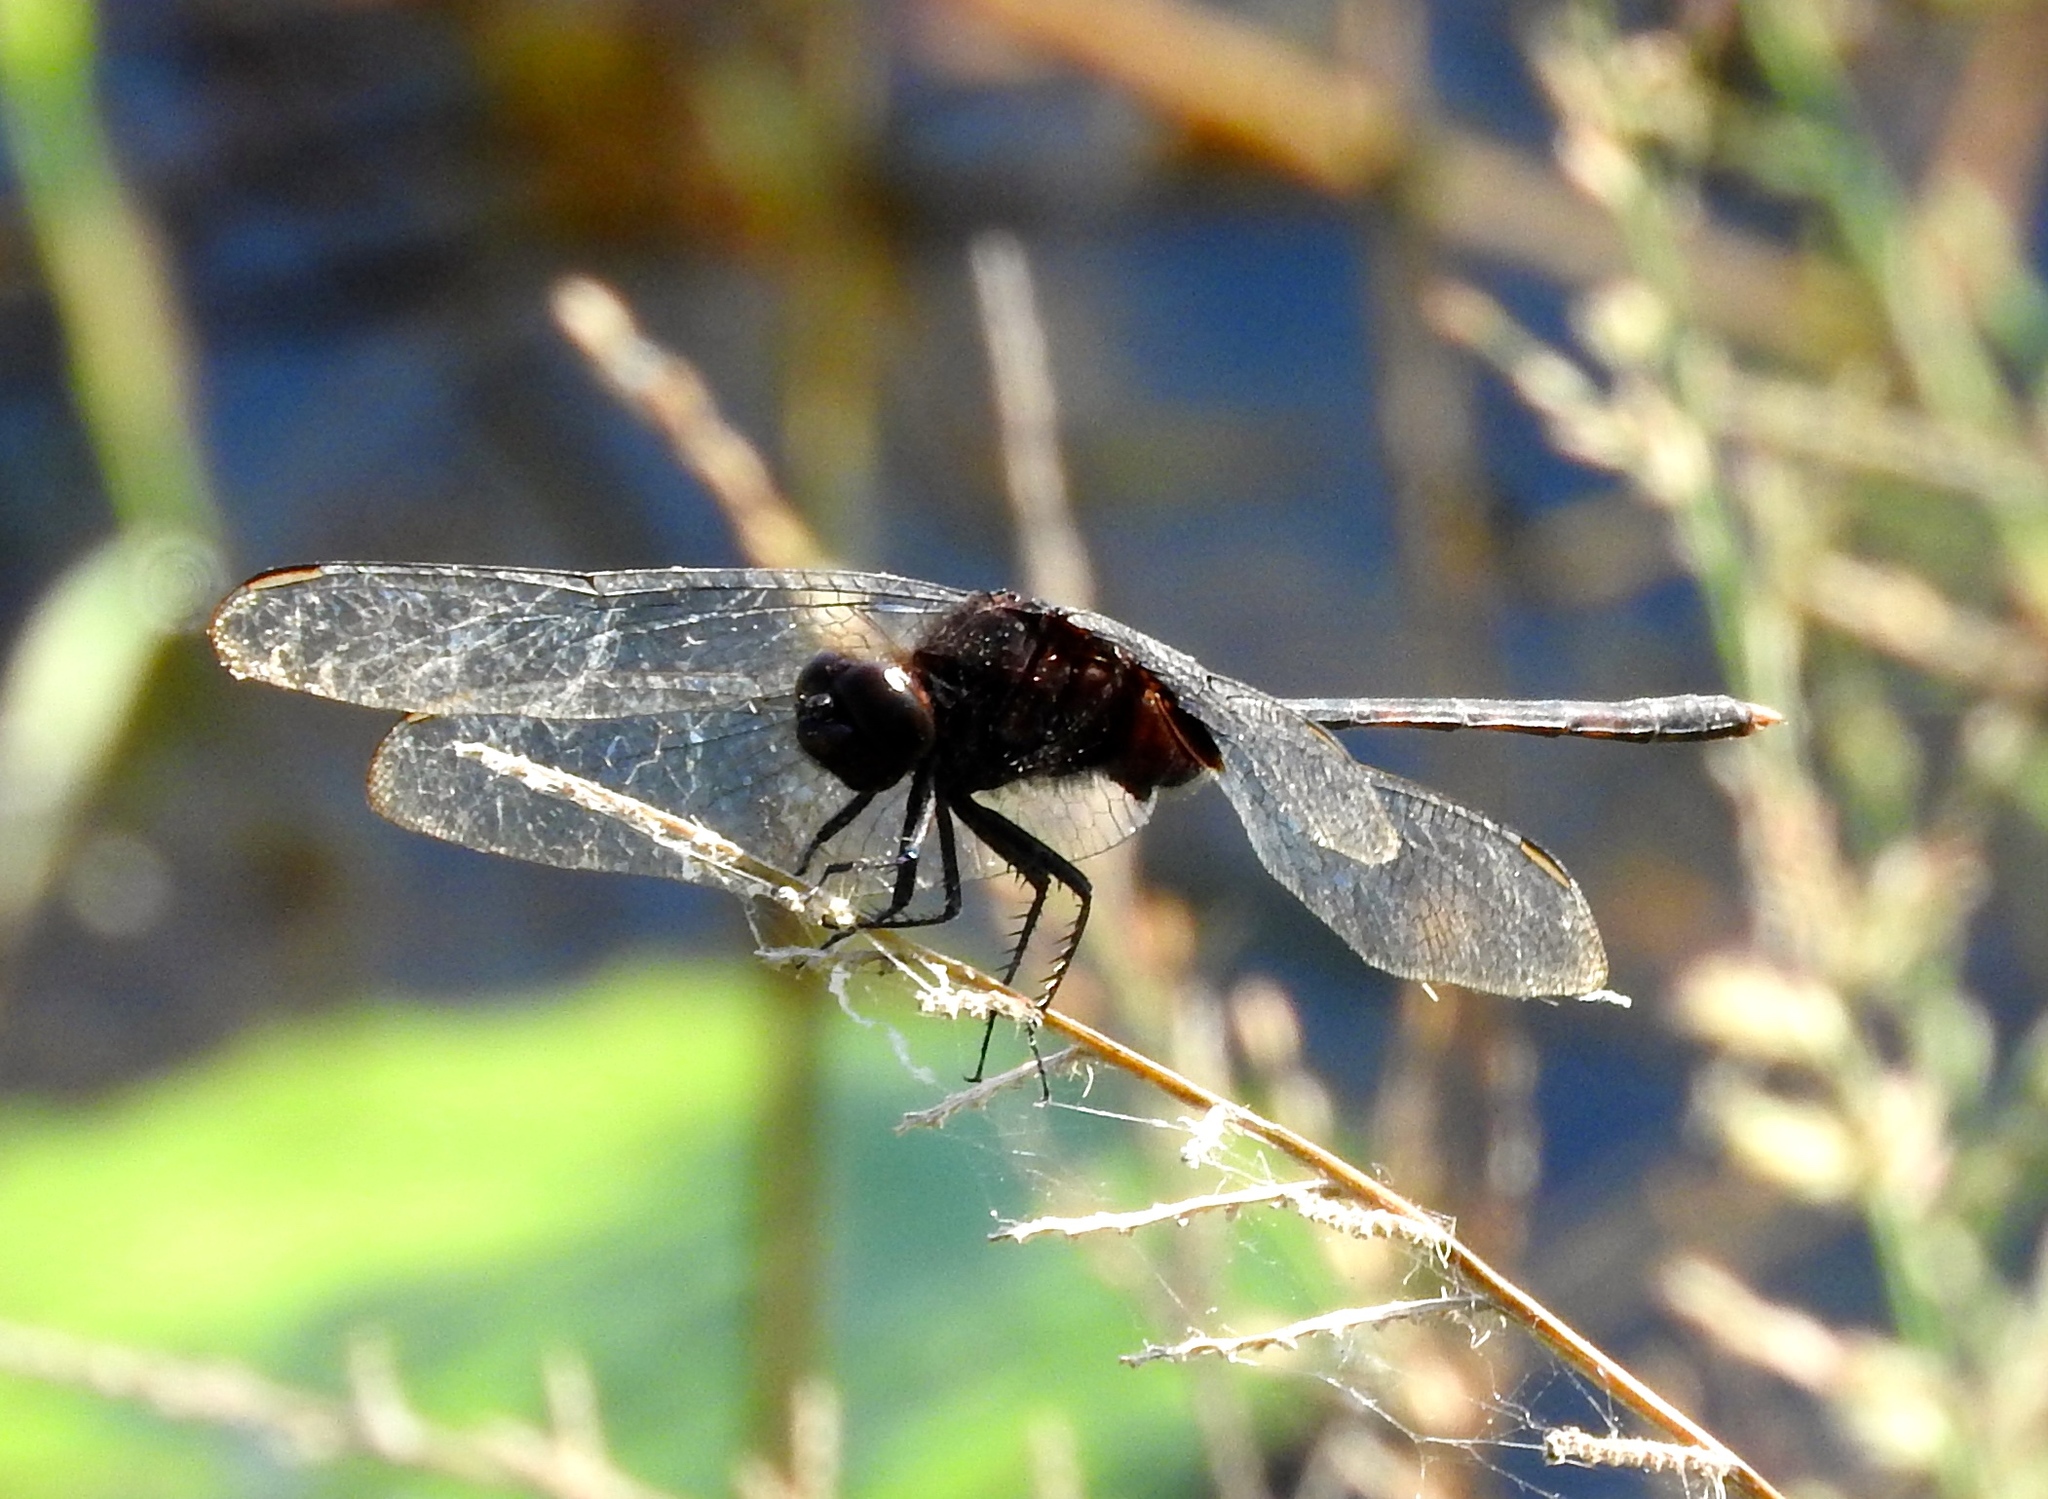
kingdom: Animalia
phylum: Arthropoda
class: Insecta
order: Odonata
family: Libellulidae
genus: Erythemis
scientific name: Erythemis plebeja
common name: Pin-tailed pondhawk
